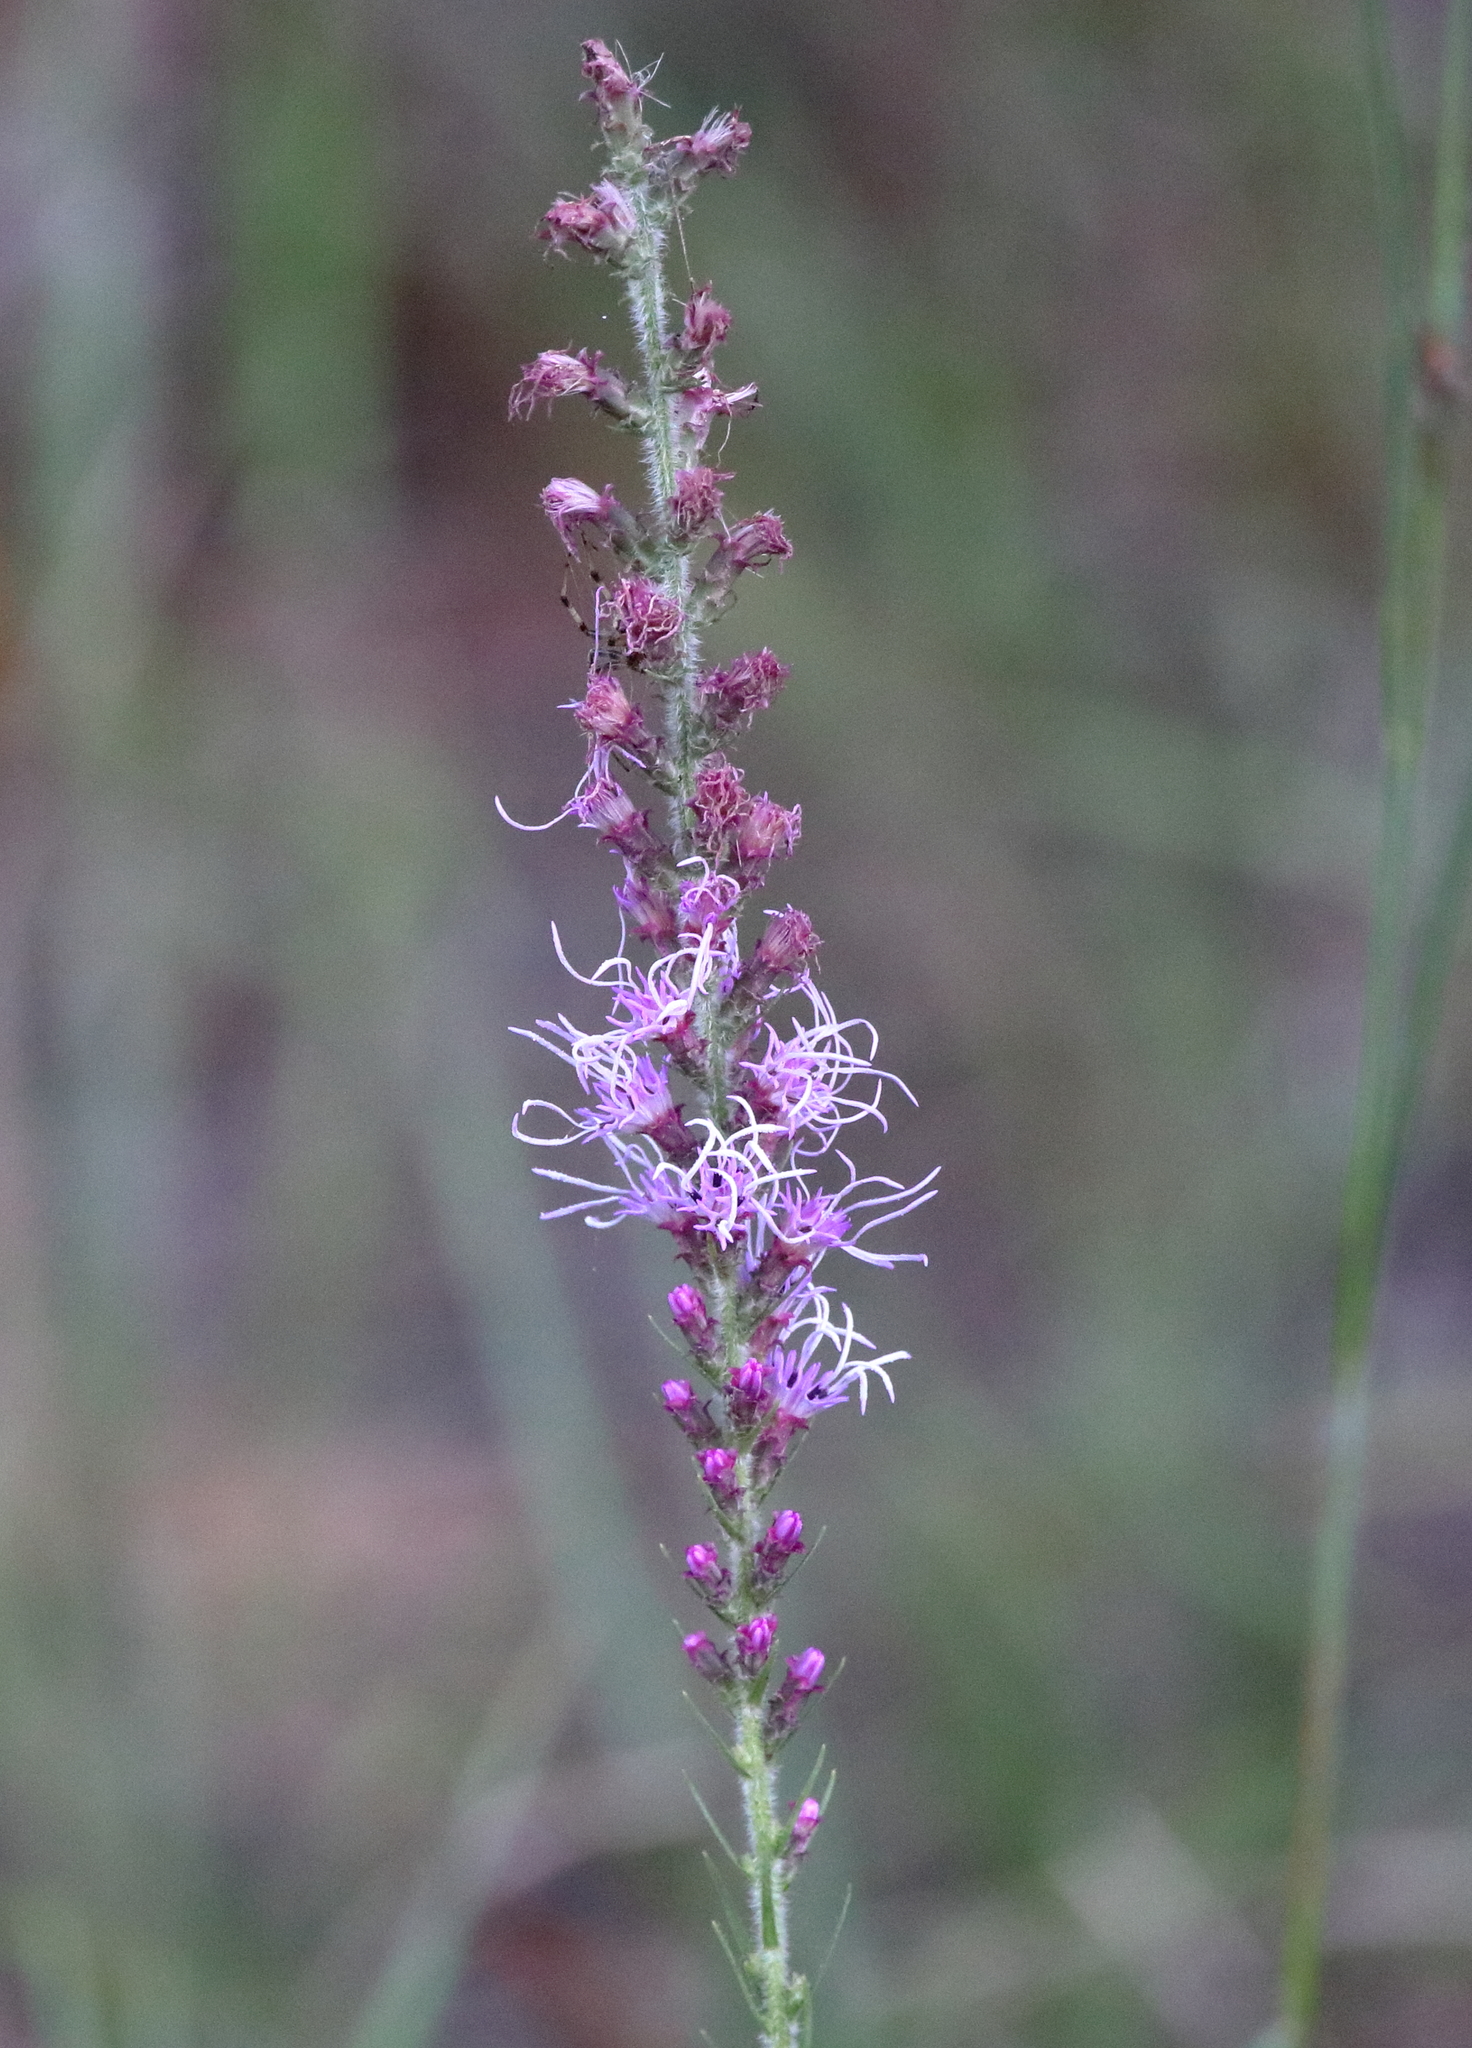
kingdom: Plantae
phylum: Tracheophyta
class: Magnoliopsida
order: Asterales
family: Asteraceae
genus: Liatris
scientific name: Liatris spicata
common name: Florist gayfeather
